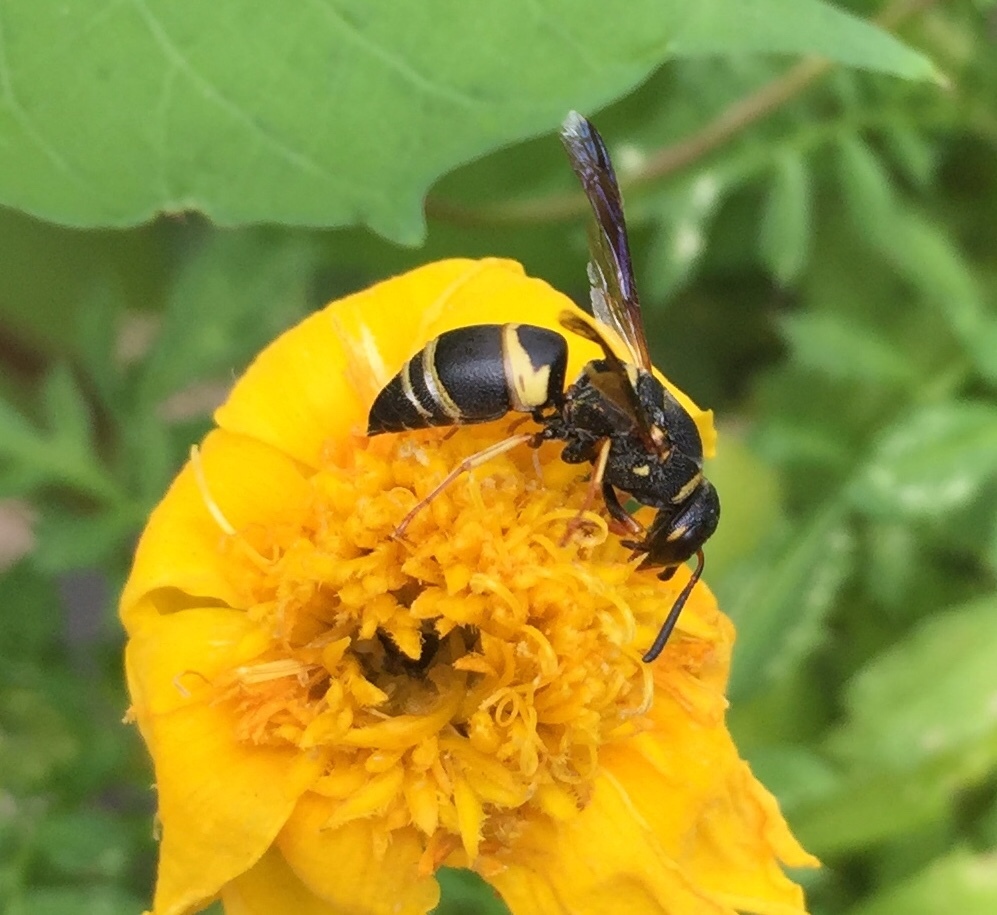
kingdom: Animalia
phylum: Arthropoda
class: Insecta
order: Hymenoptera
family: Eumenidae
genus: Euodynerus
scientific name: Euodynerus hidalgo
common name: Wasp
